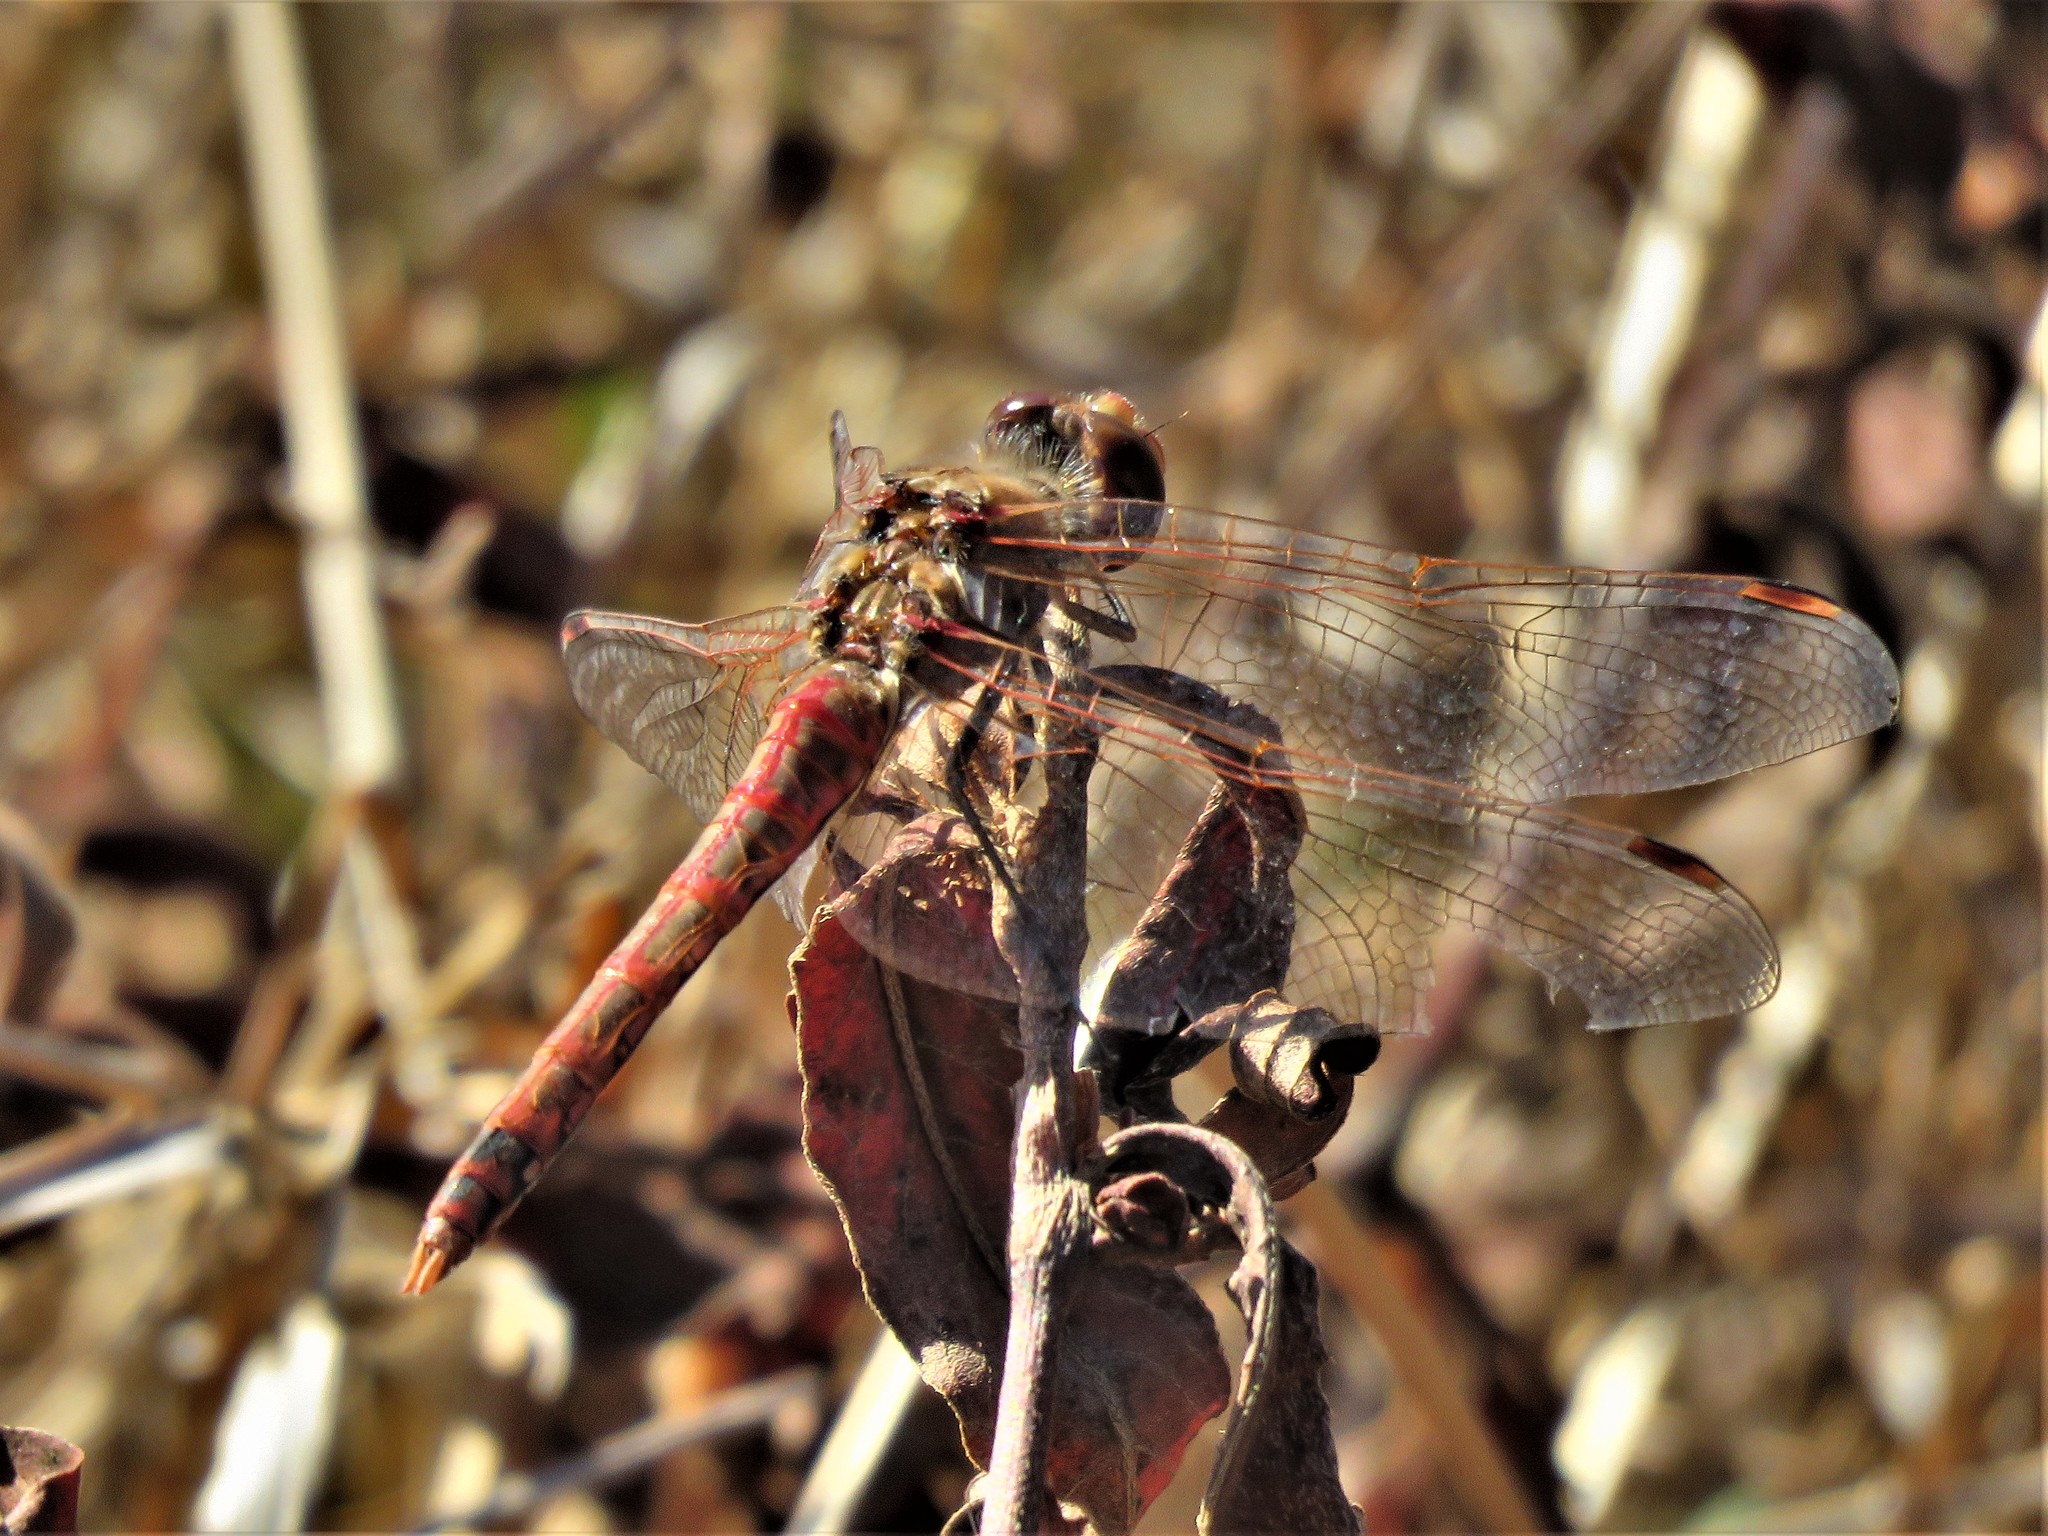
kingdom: Animalia
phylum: Arthropoda
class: Insecta
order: Odonata
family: Libellulidae
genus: Sympetrum
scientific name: Sympetrum corruptum
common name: Variegated meadowhawk
